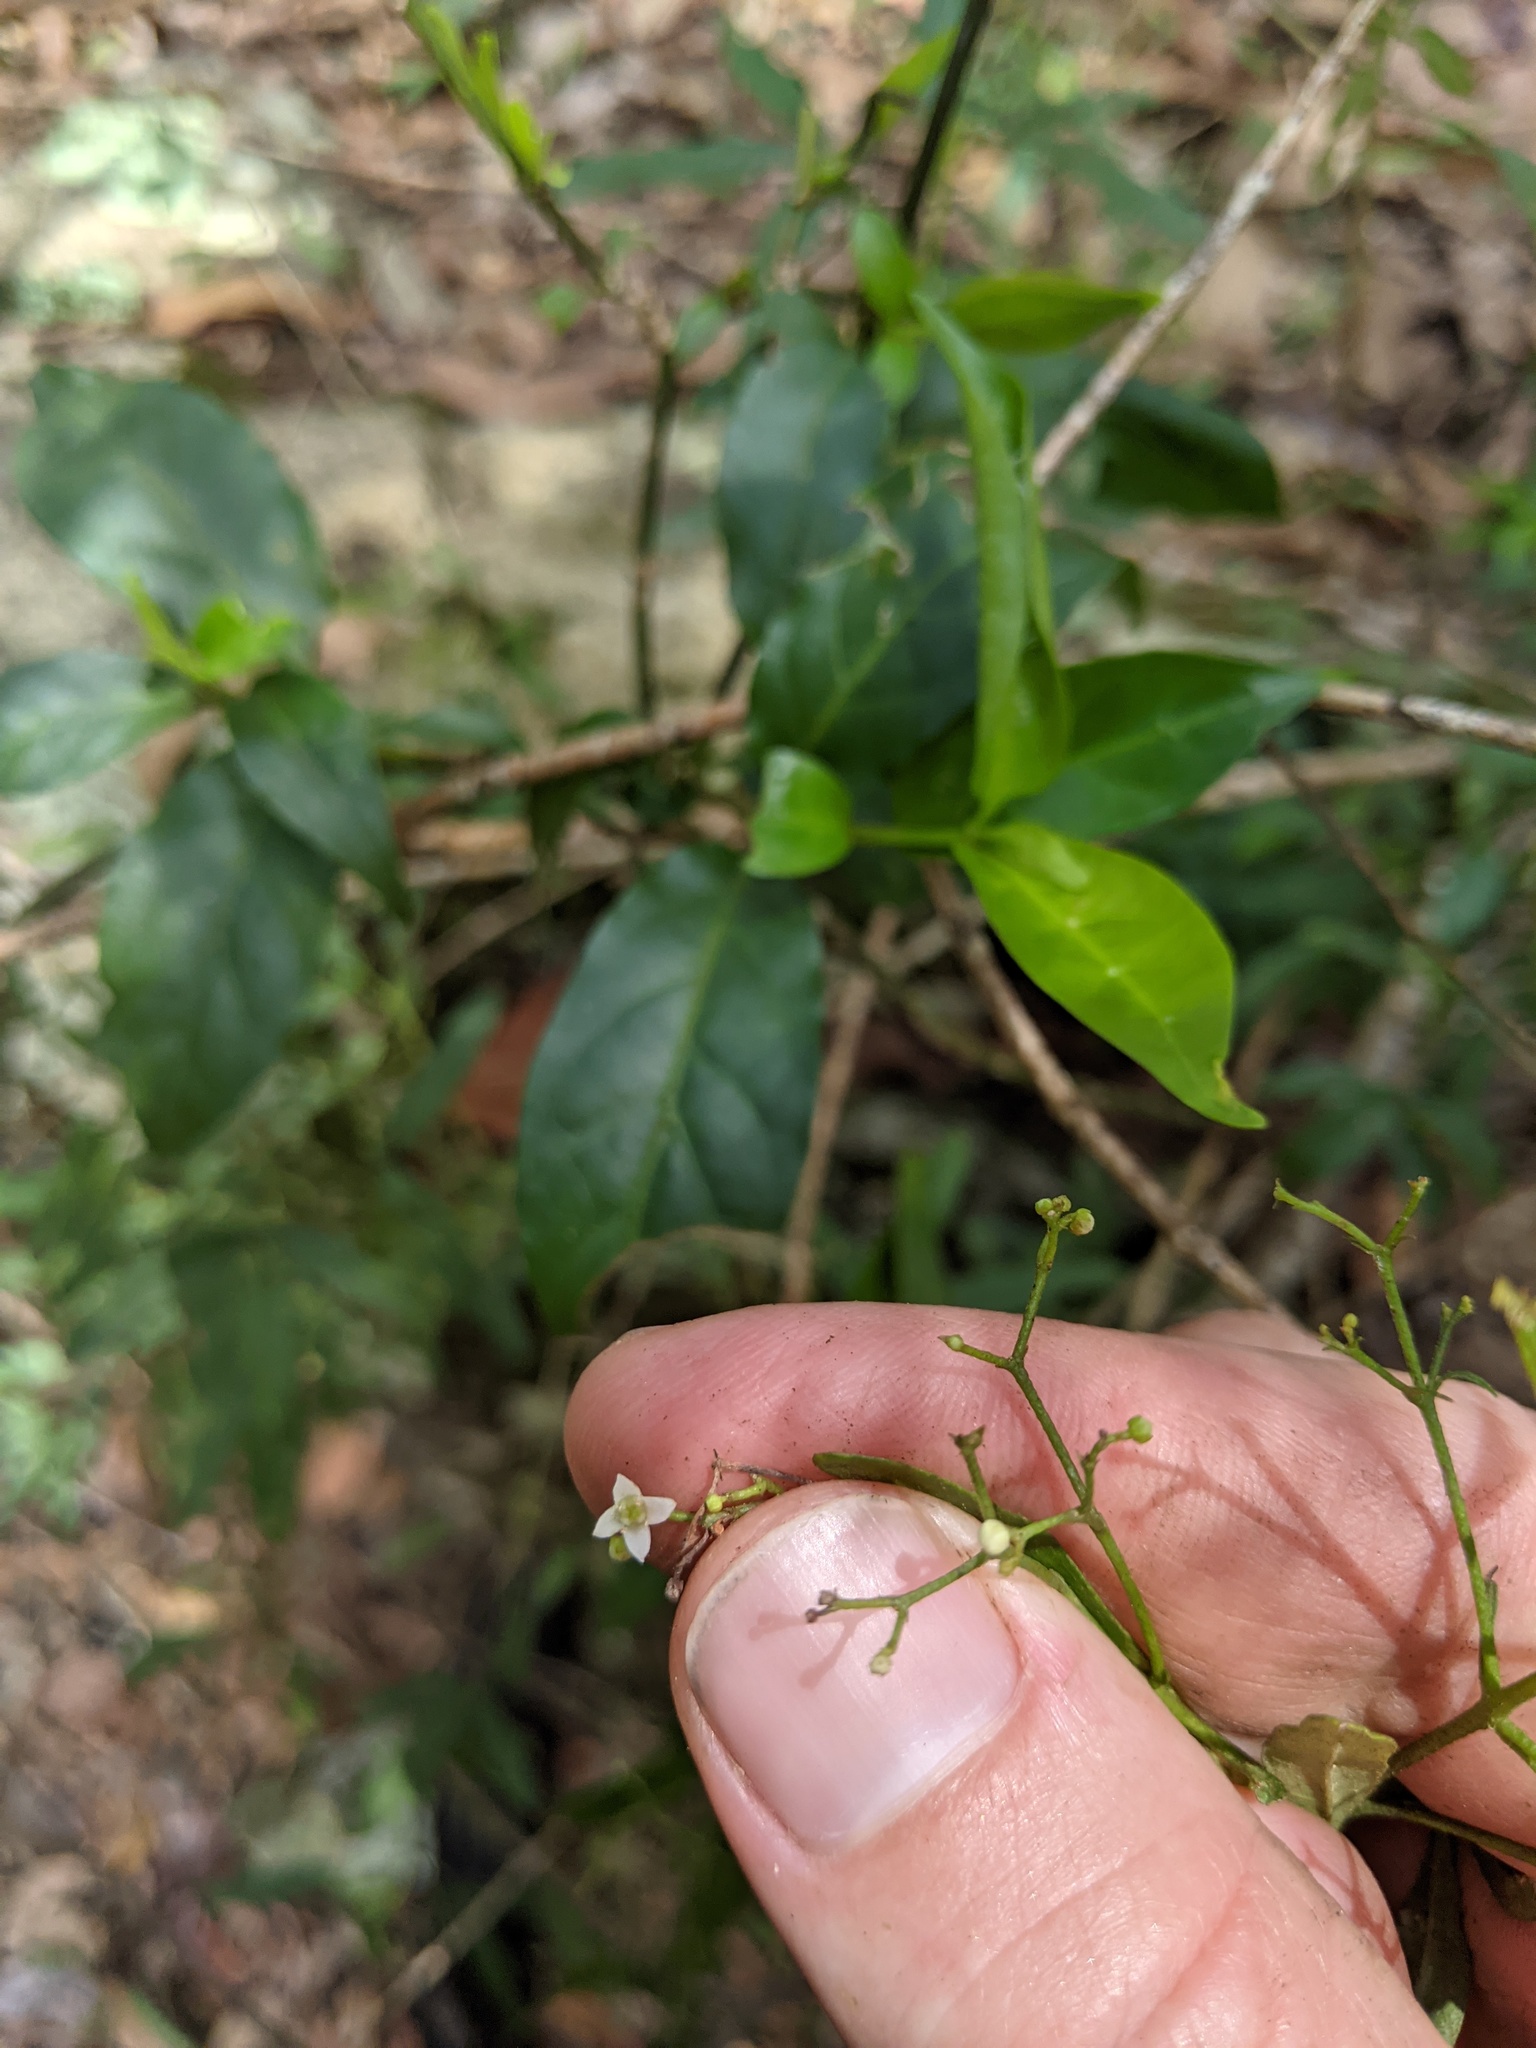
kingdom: Plantae
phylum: Tracheophyta
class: Magnoliopsida
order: Sapindales
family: Rutaceae
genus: Zieria
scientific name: Zieria smithii
